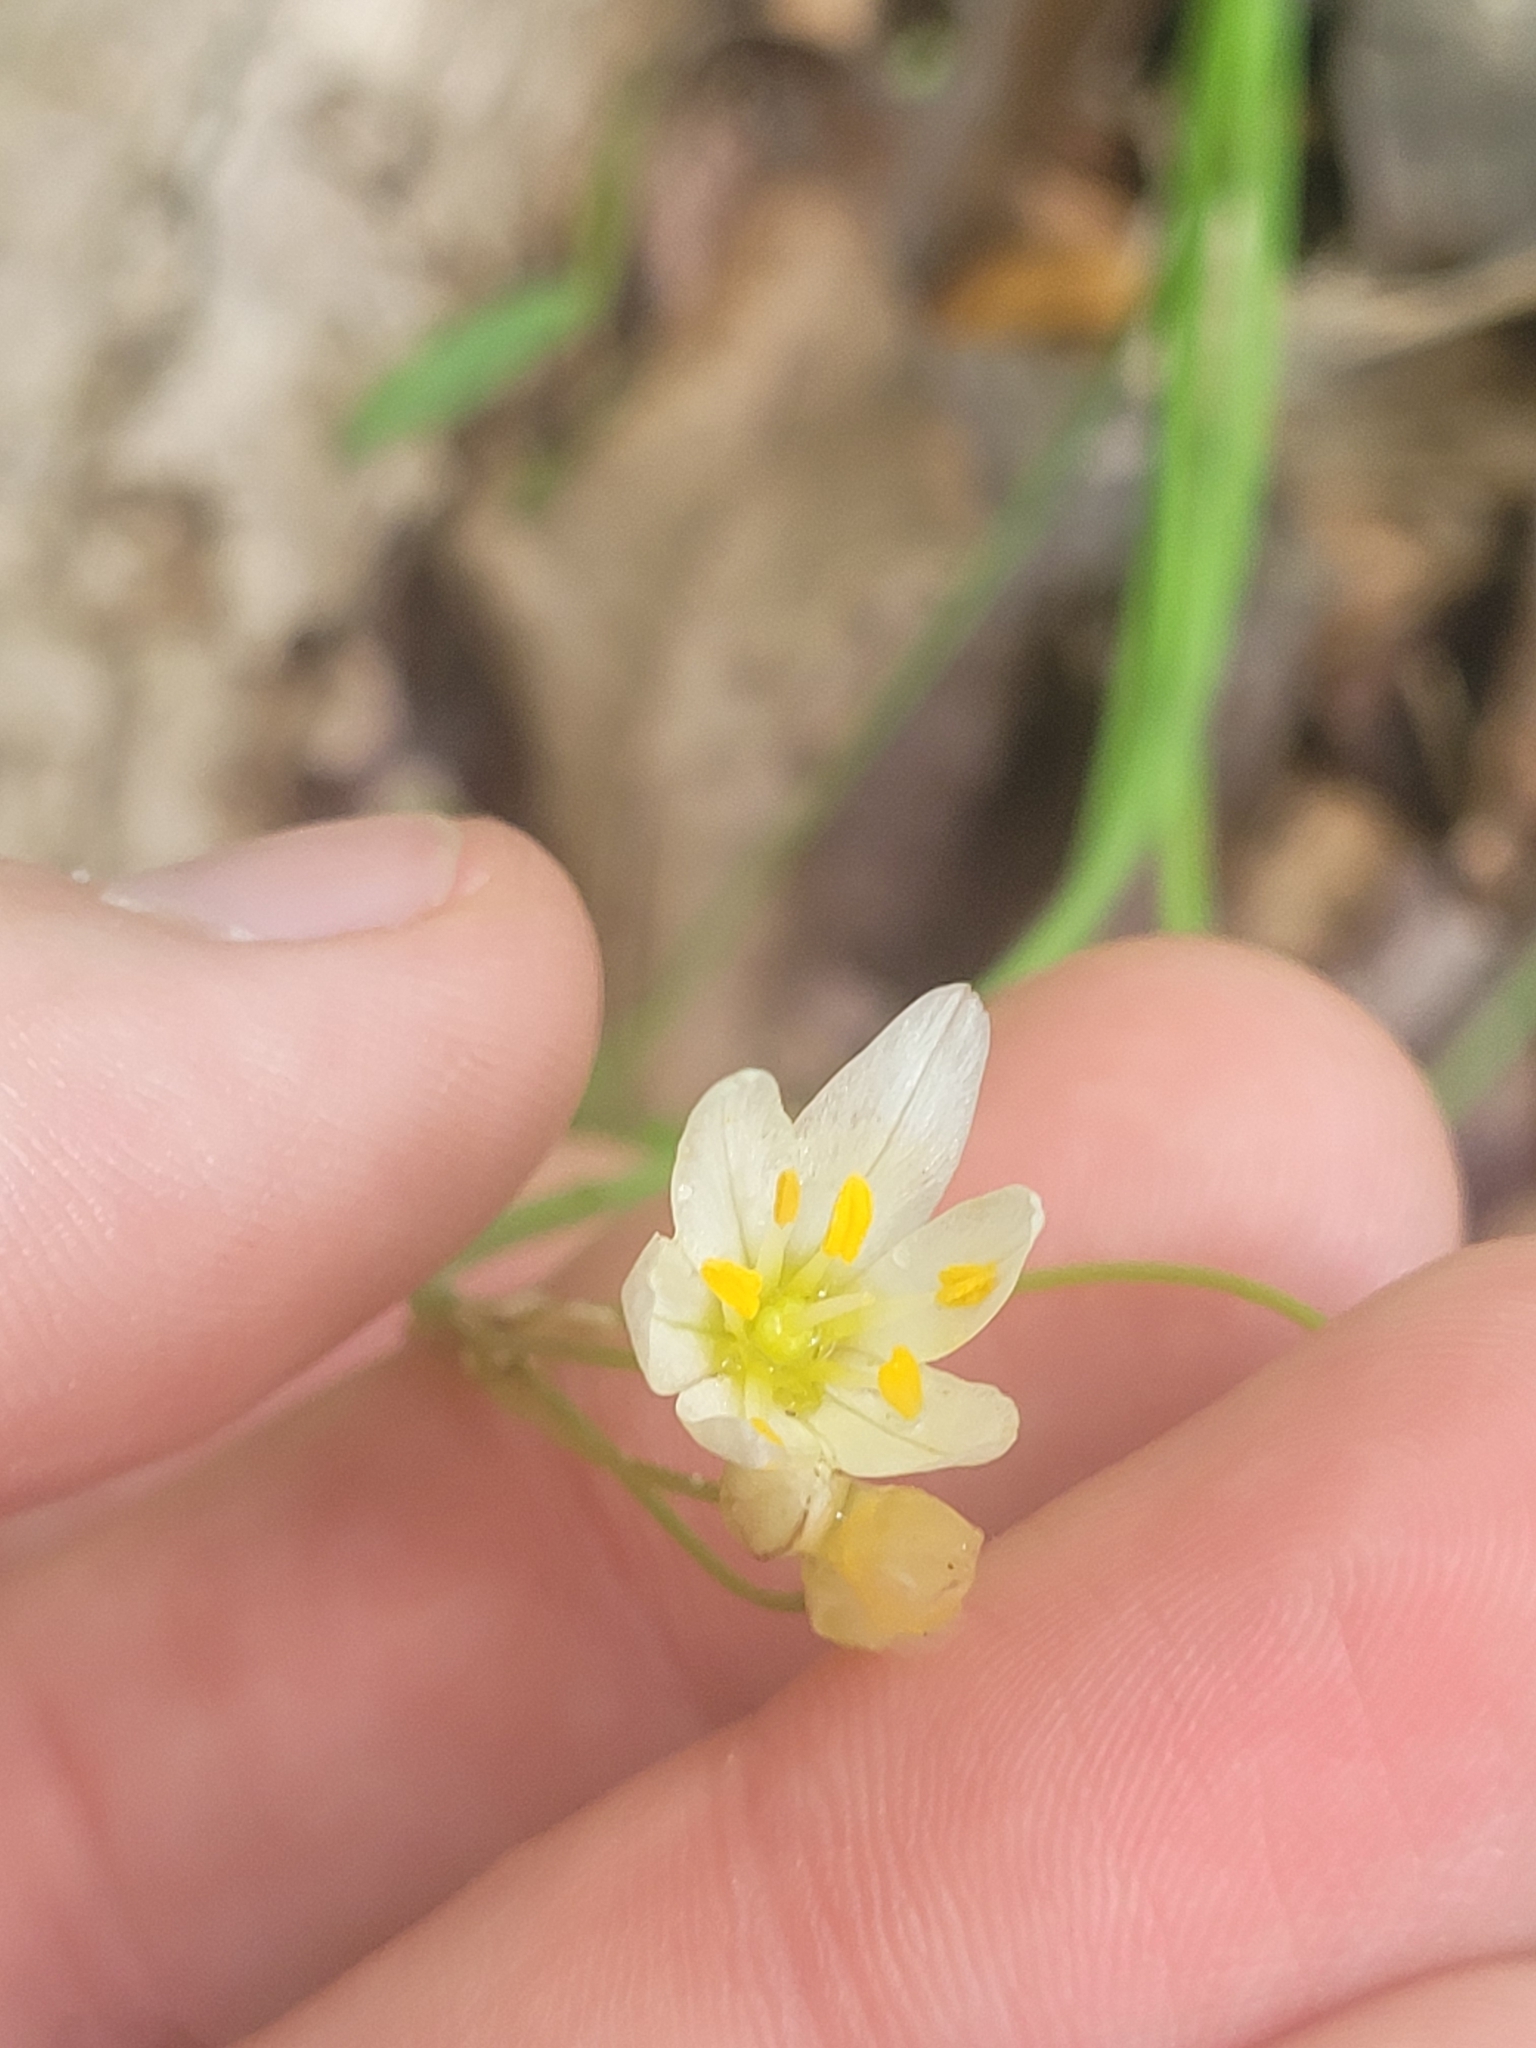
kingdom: Plantae
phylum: Tracheophyta
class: Liliopsida
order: Asparagales
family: Amaryllidaceae
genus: Nothoscordum
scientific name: Nothoscordum bivalve
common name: Crow-poison
